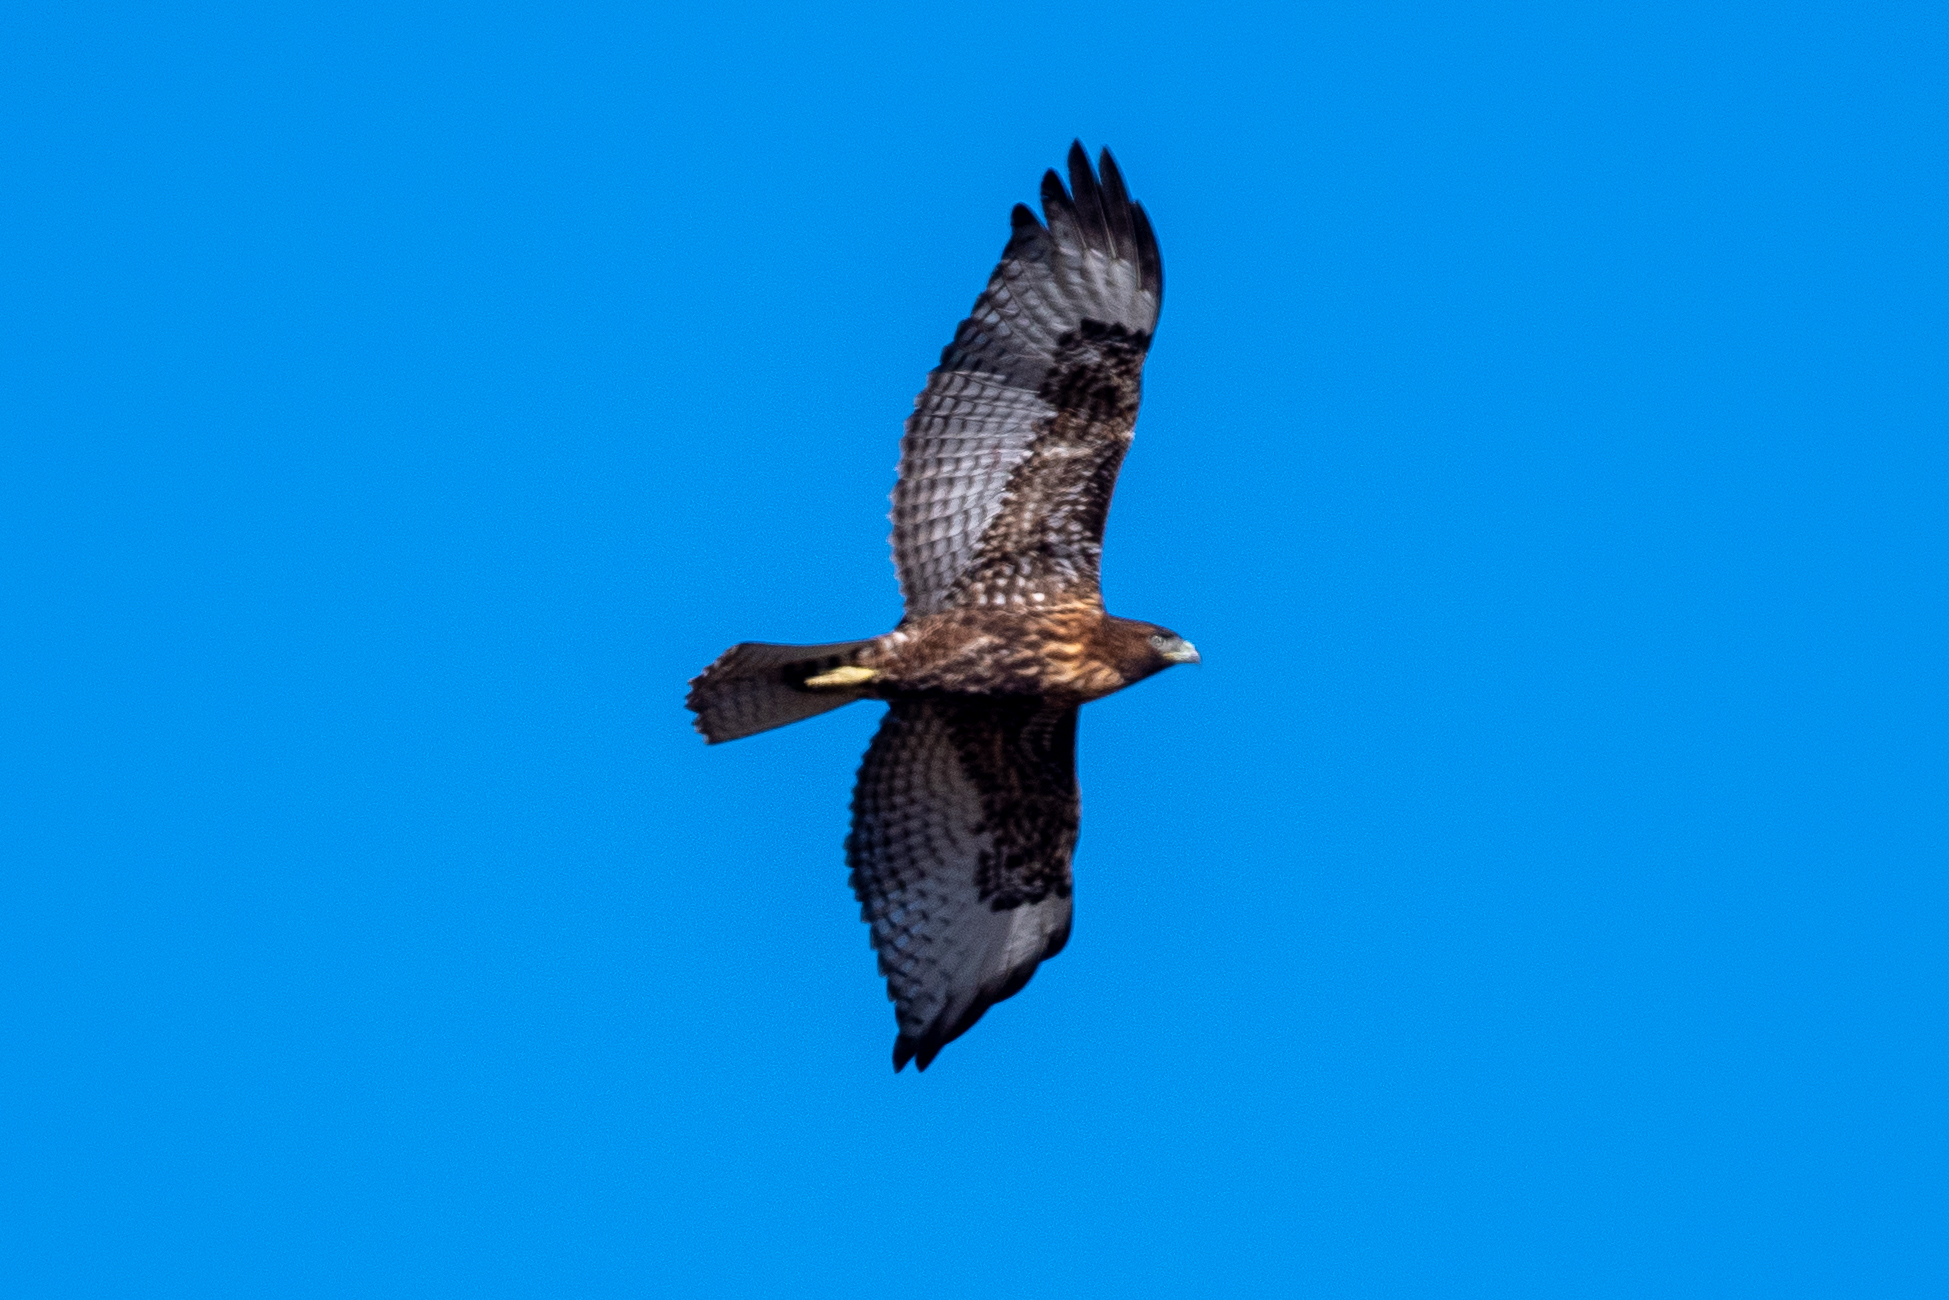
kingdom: Animalia
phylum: Chordata
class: Aves
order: Accipitriformes
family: Accipitridae
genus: Buteo
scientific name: Buteo jamaicensis
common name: Red-tailed hawk
